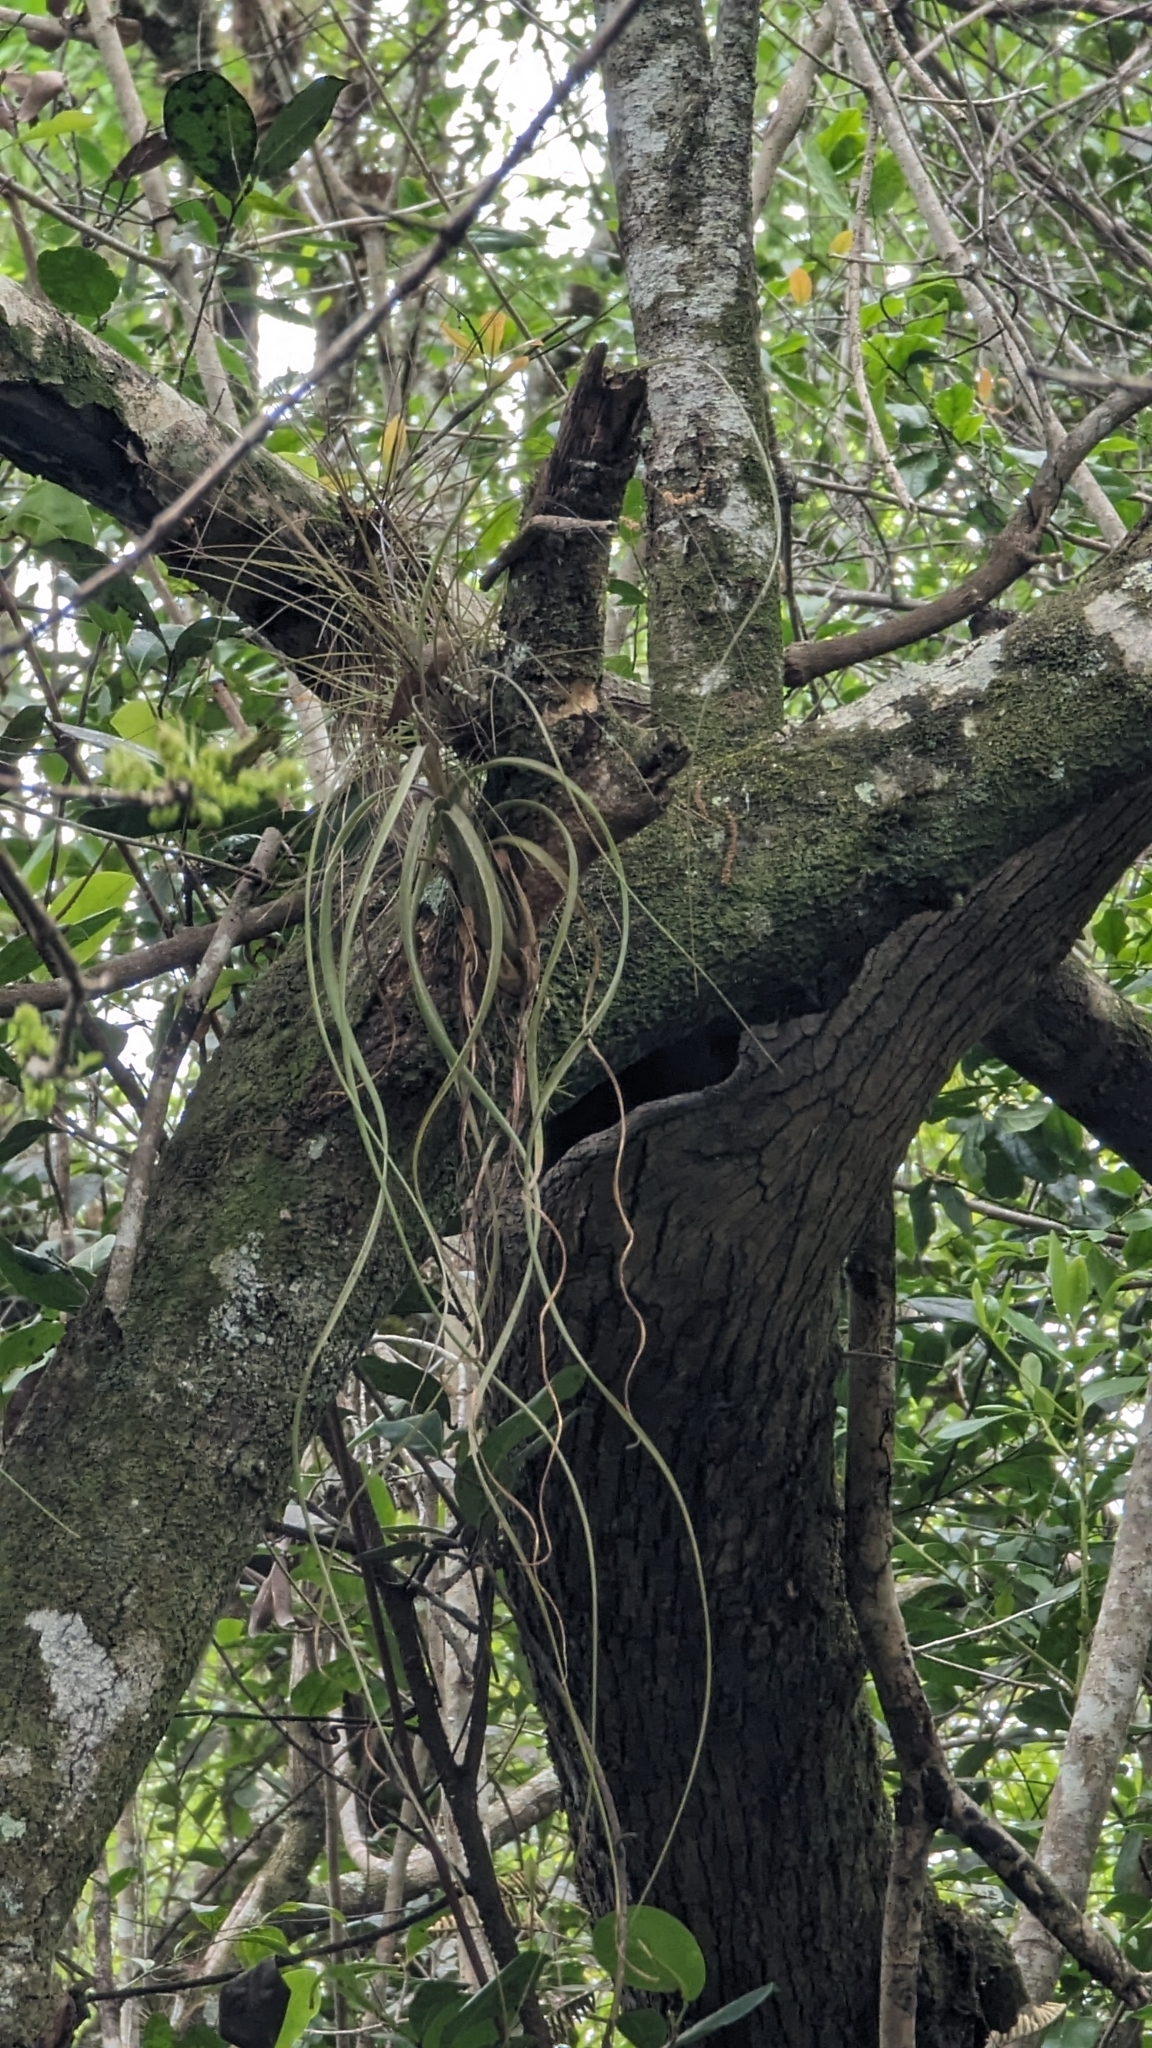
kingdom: Plantae
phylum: Tracheophyta
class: Liliopsida
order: Poales
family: Bromeliaceae
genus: Tillandsia
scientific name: Tillandsia balbisiana
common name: Northern needleleaf
